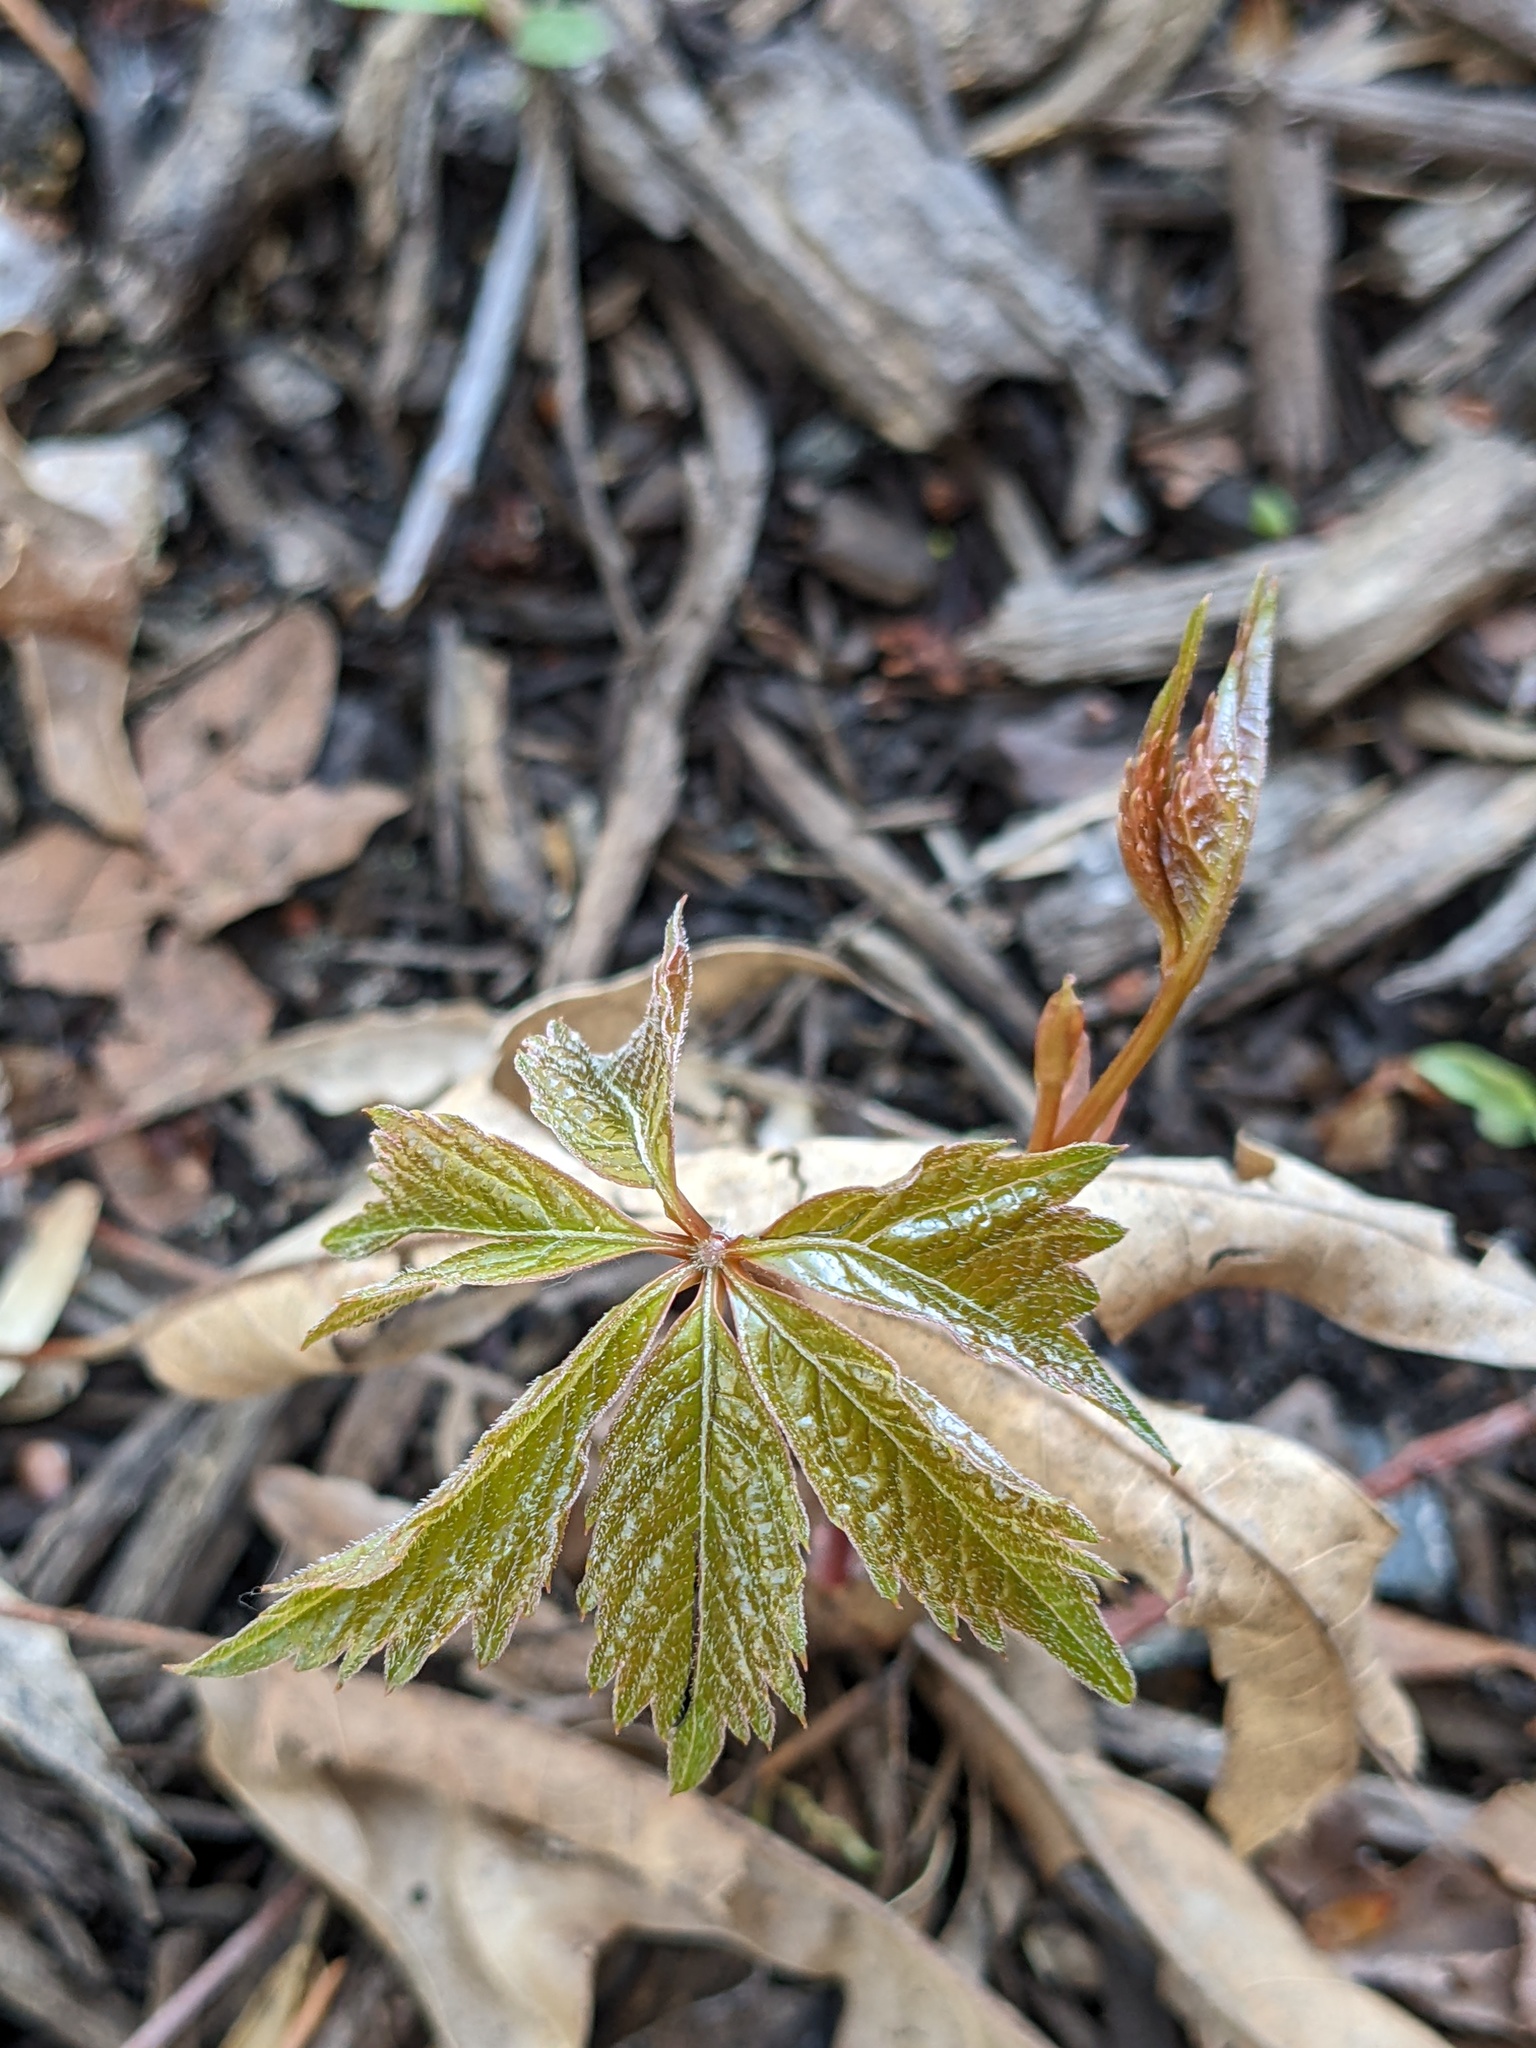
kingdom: Plantae
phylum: Tracheophyta
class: Magnoliopsida
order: Vitales
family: Vitaceae
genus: Parthenocissus
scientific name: Parthenocissus quinquefolia
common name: Virginia-creeper
